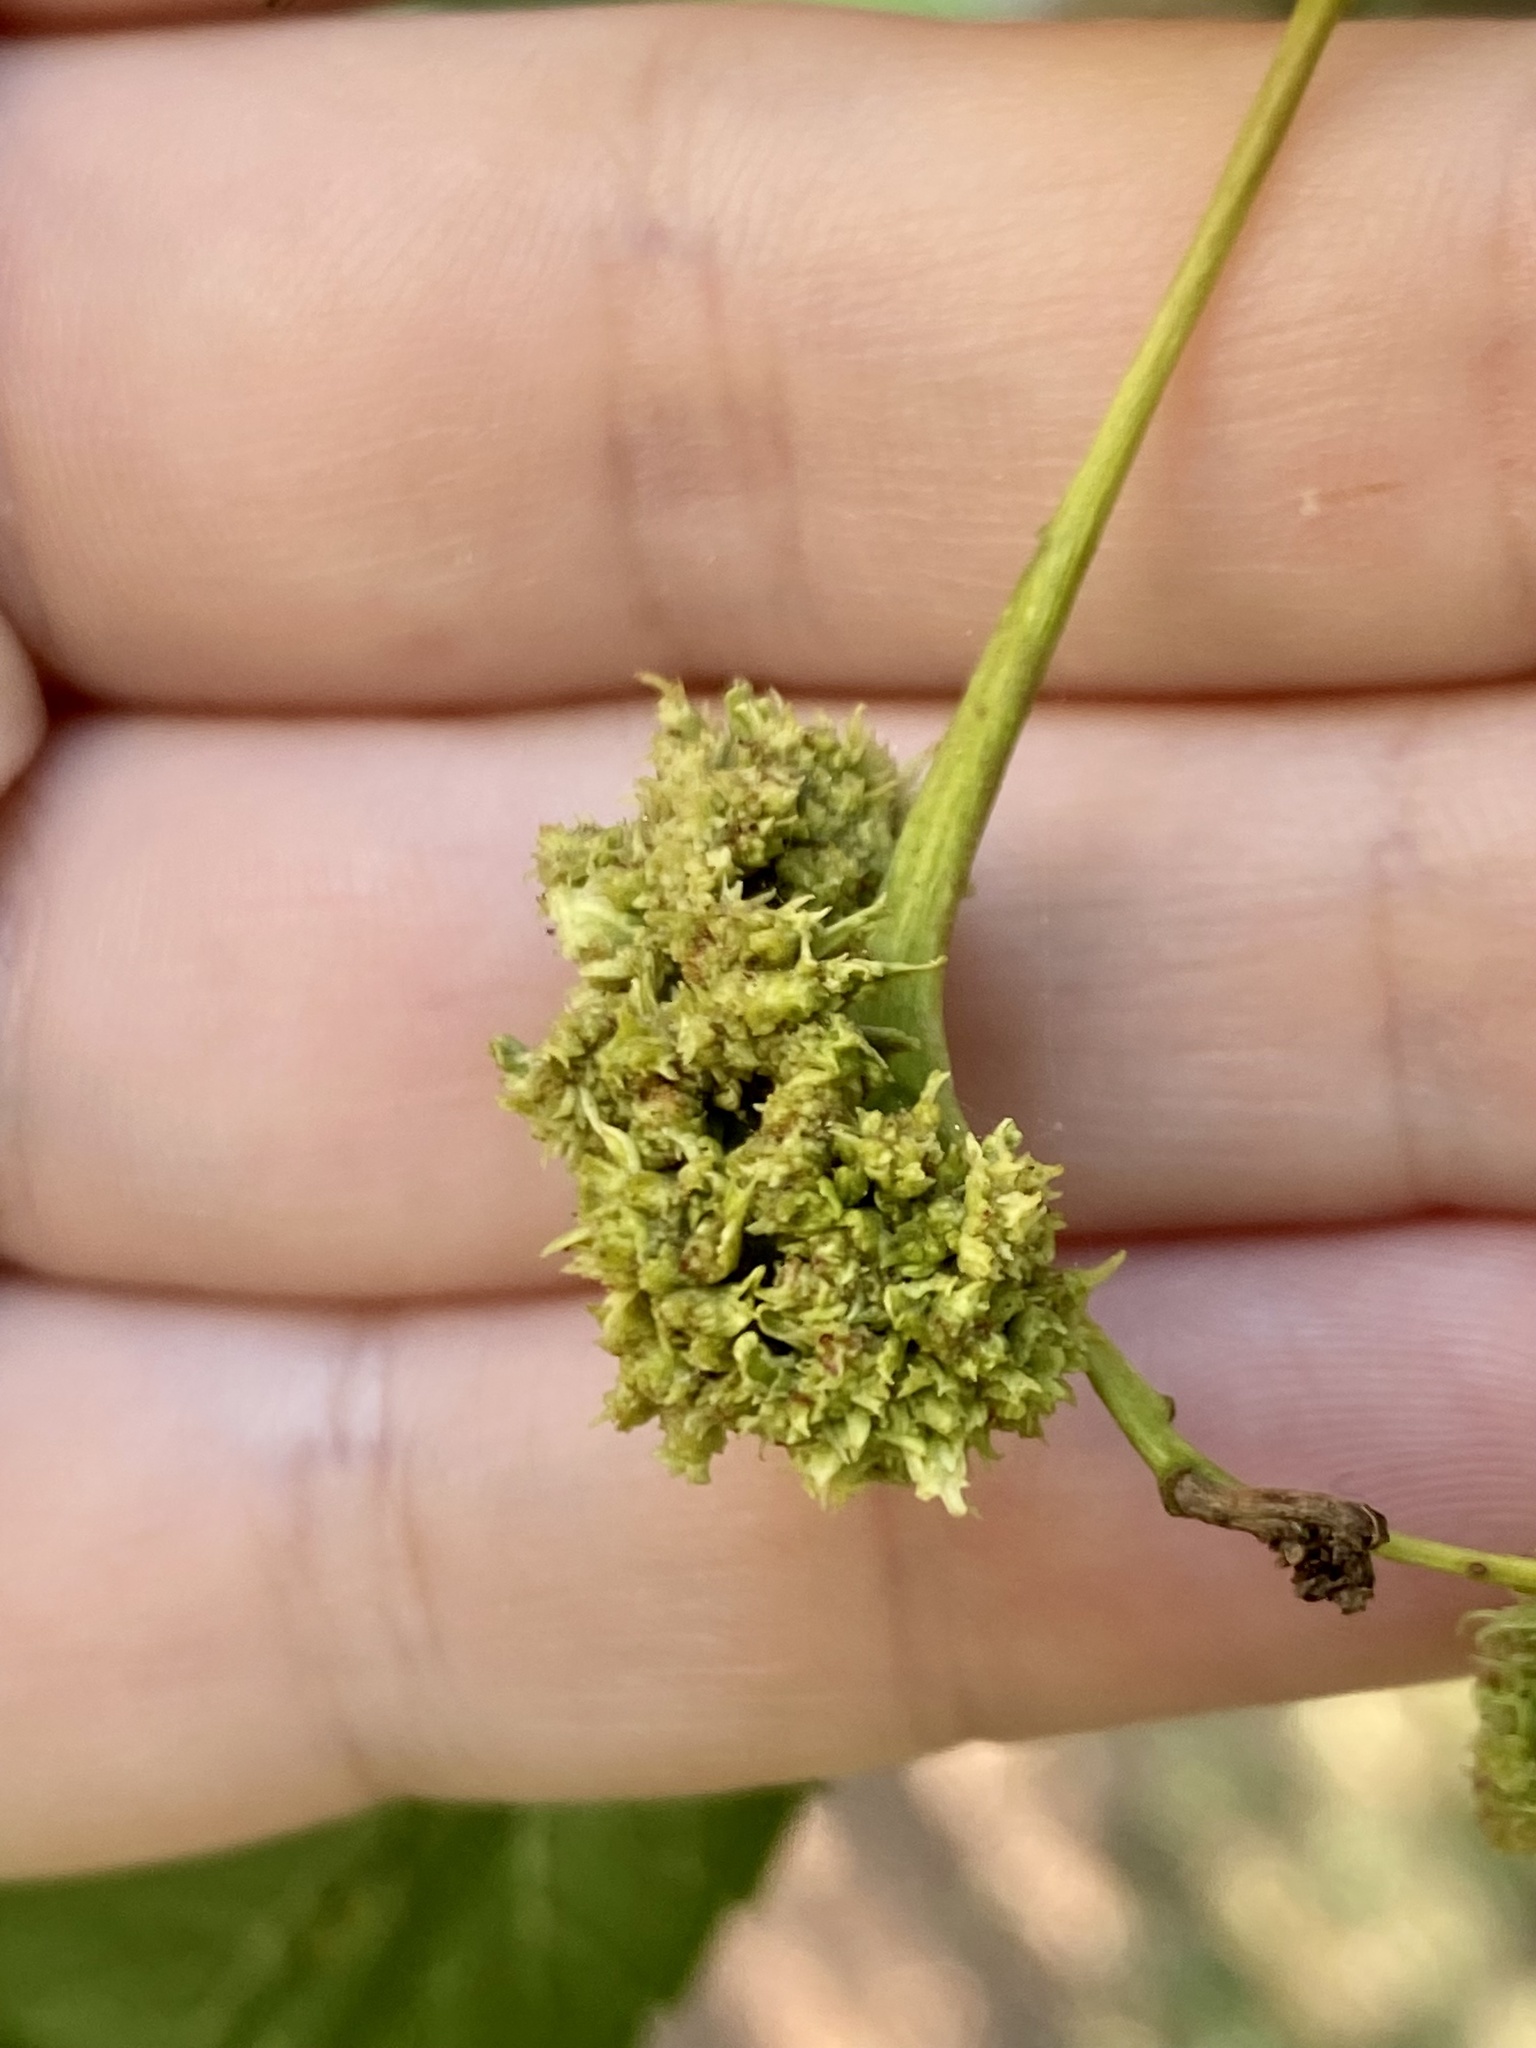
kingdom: Animalia
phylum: Arthropoda
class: Arachnida
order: Trombidiformes
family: Eriophyidae
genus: Aceria
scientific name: Aceria fraxiniflora
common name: Ash flower gall mite
